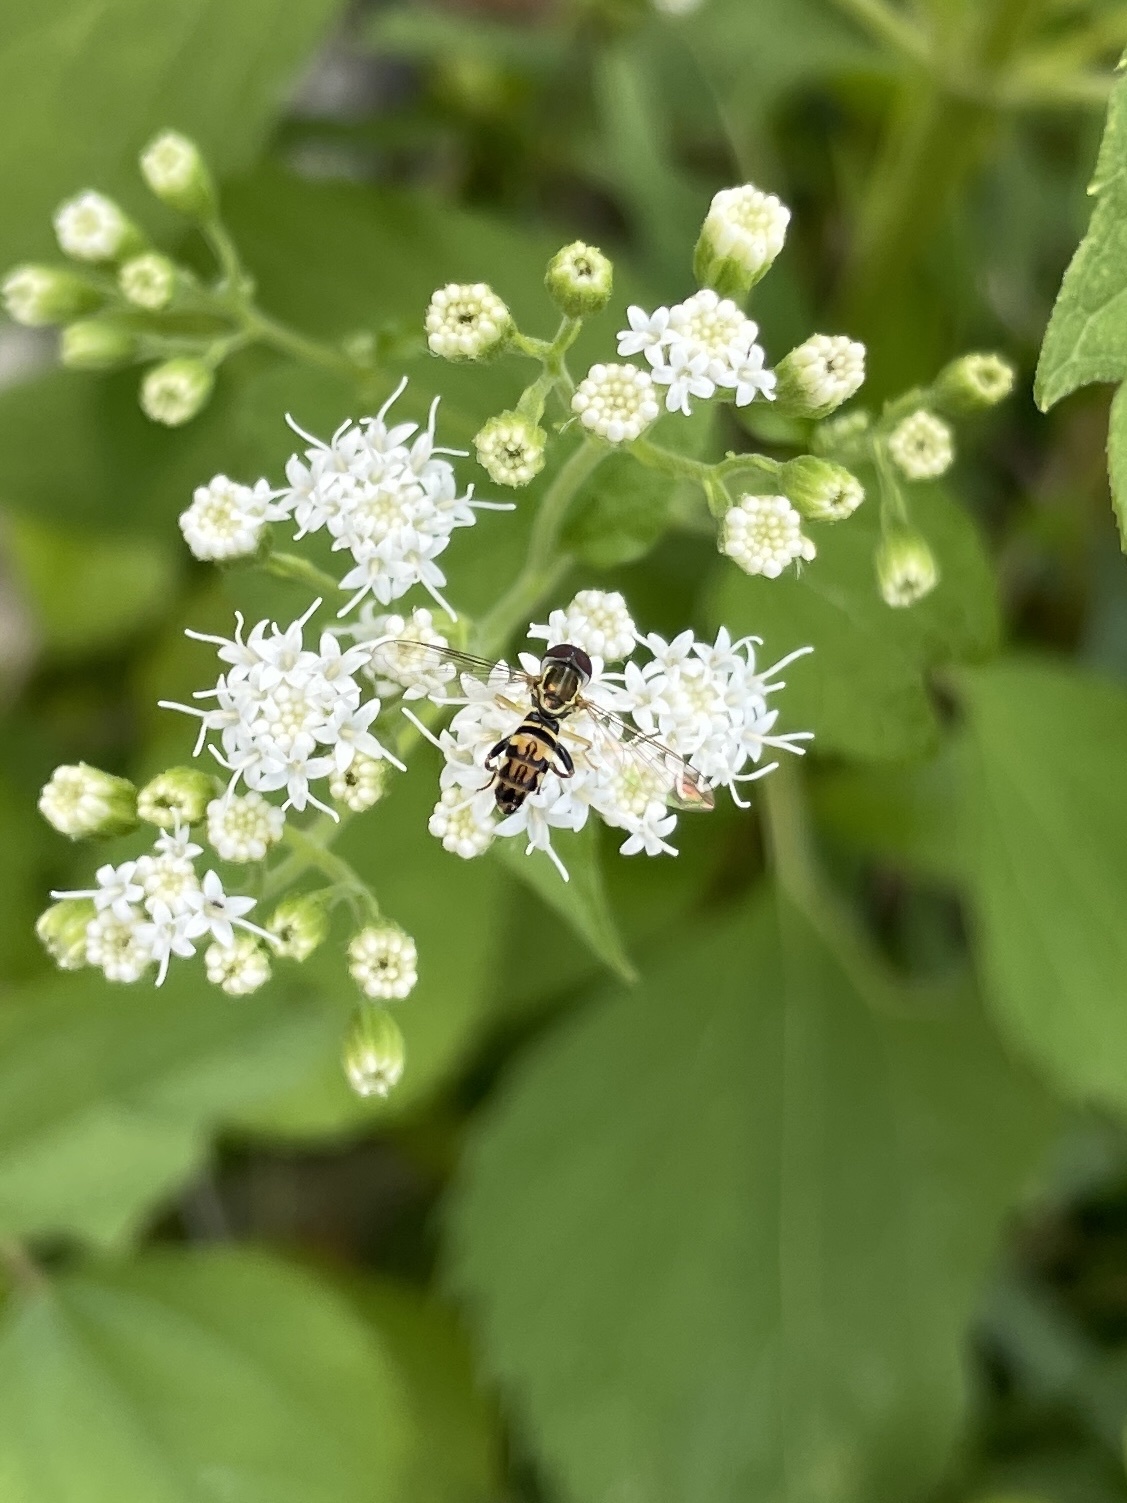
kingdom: Animalia
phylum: Arthropoda
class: Insecta
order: Diptera
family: Syrphidae
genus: Toxomerus
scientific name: Toxomerus geminatus
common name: Eastern calligrapher
